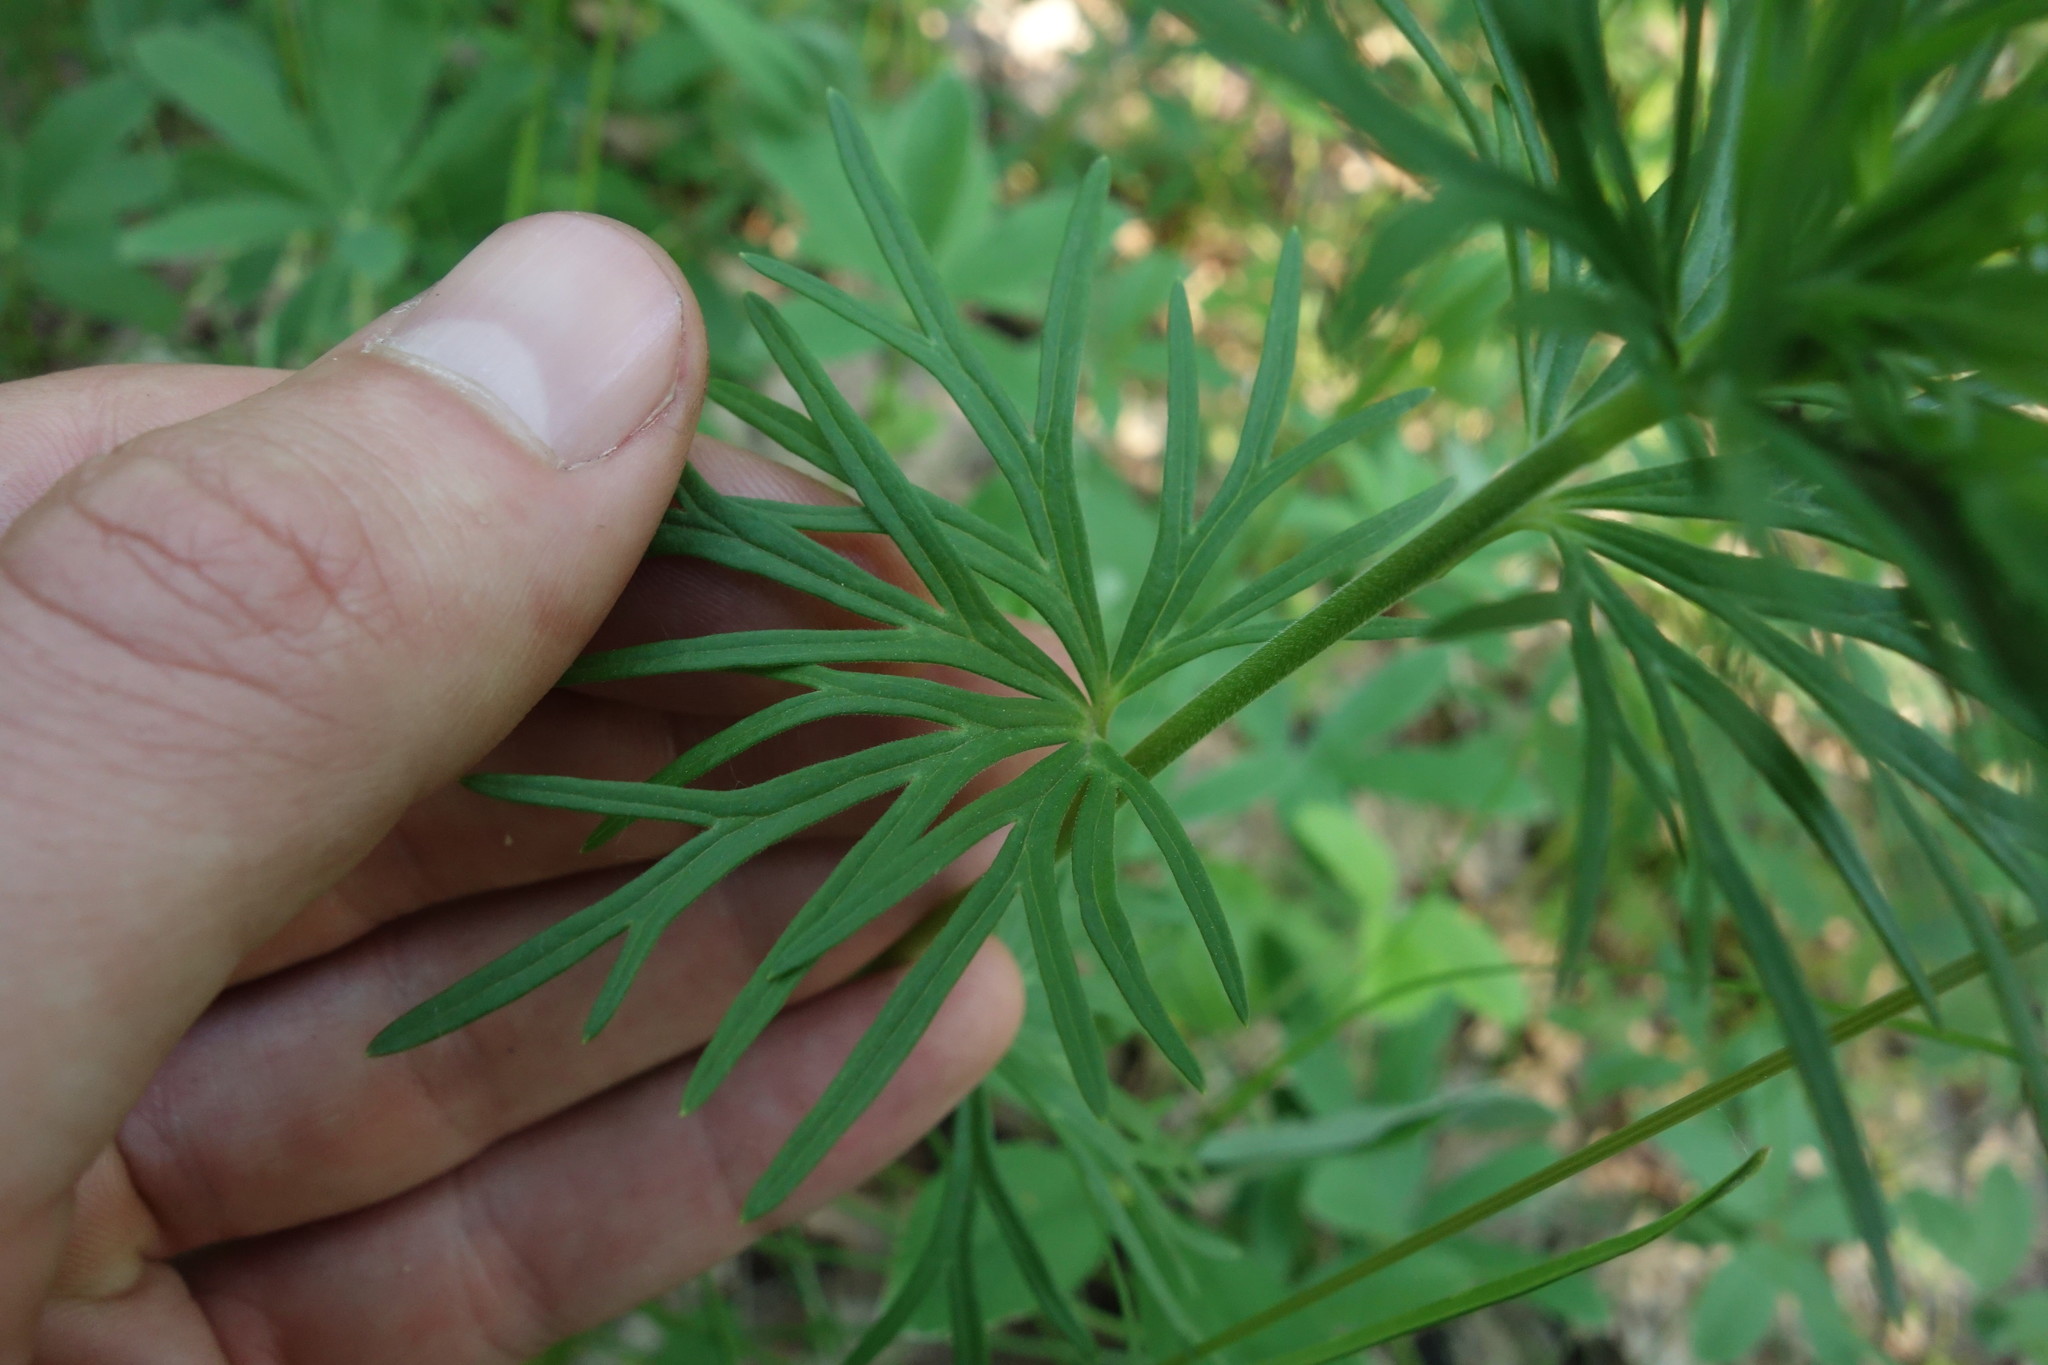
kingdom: Plantae
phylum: Tracheophyta
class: Magnoliopsida
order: Ranunculales
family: Ranunculaceae
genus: Aconitum
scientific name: Aconitum anthora
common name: Yellow monkshood
